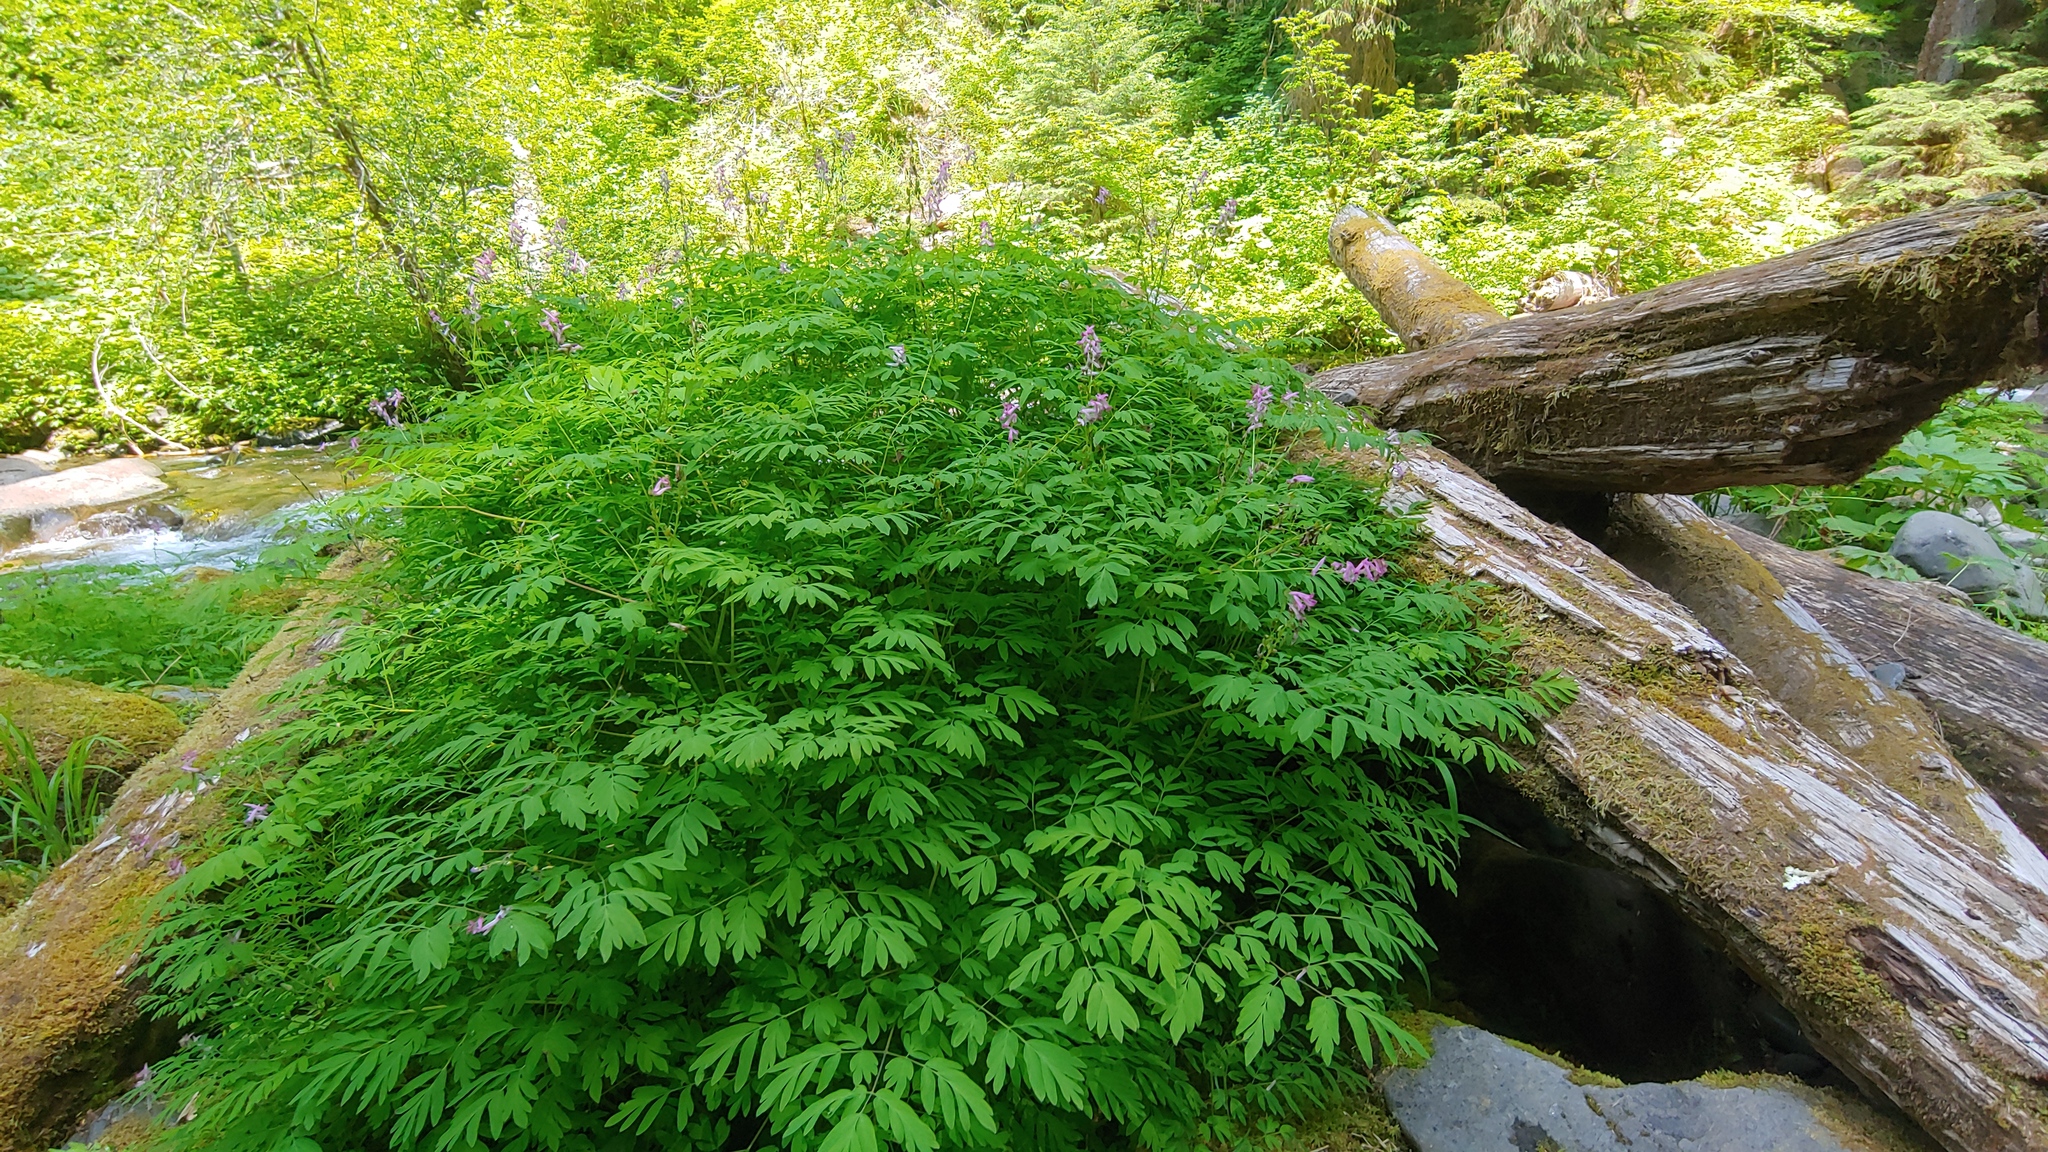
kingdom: Plantae
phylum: Tracheophyta
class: Magnoliopsida
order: Ranunculales
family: Papaveraceae
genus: Corydalis
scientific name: Corydalis scouleri
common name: Scouler's corydalis
